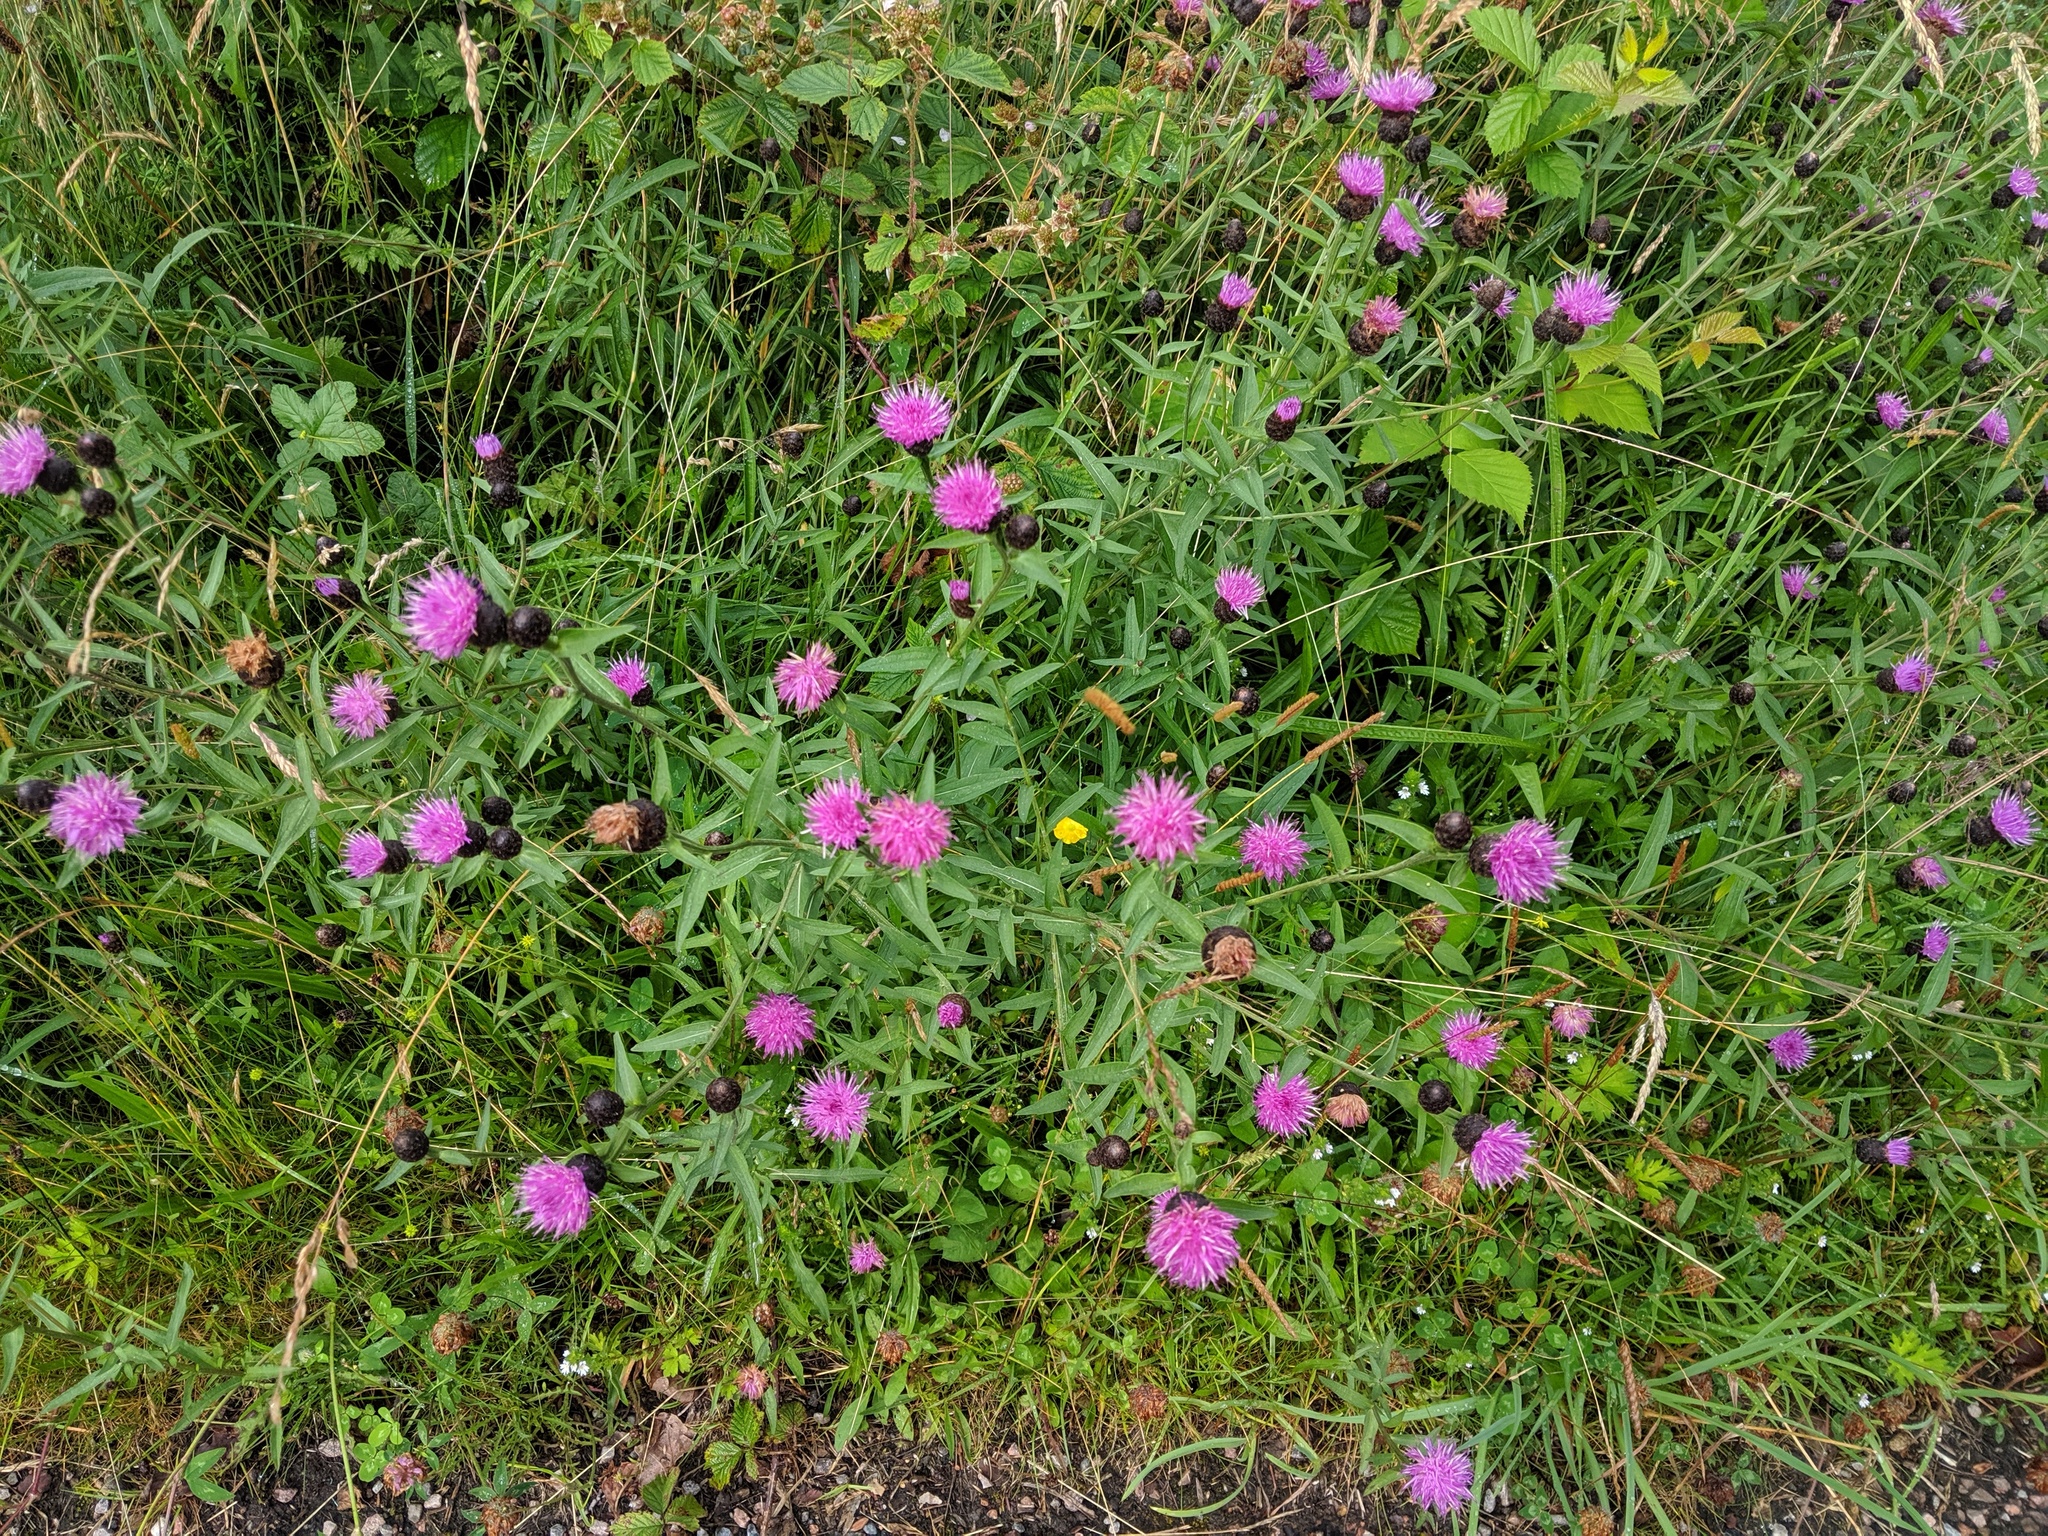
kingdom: Plantae
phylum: Tracheophyta
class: Magnoliopsida
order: Asterales
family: Asteraceae
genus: Centaurea
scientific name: Centaurea nigra
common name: Lesser knapweed
